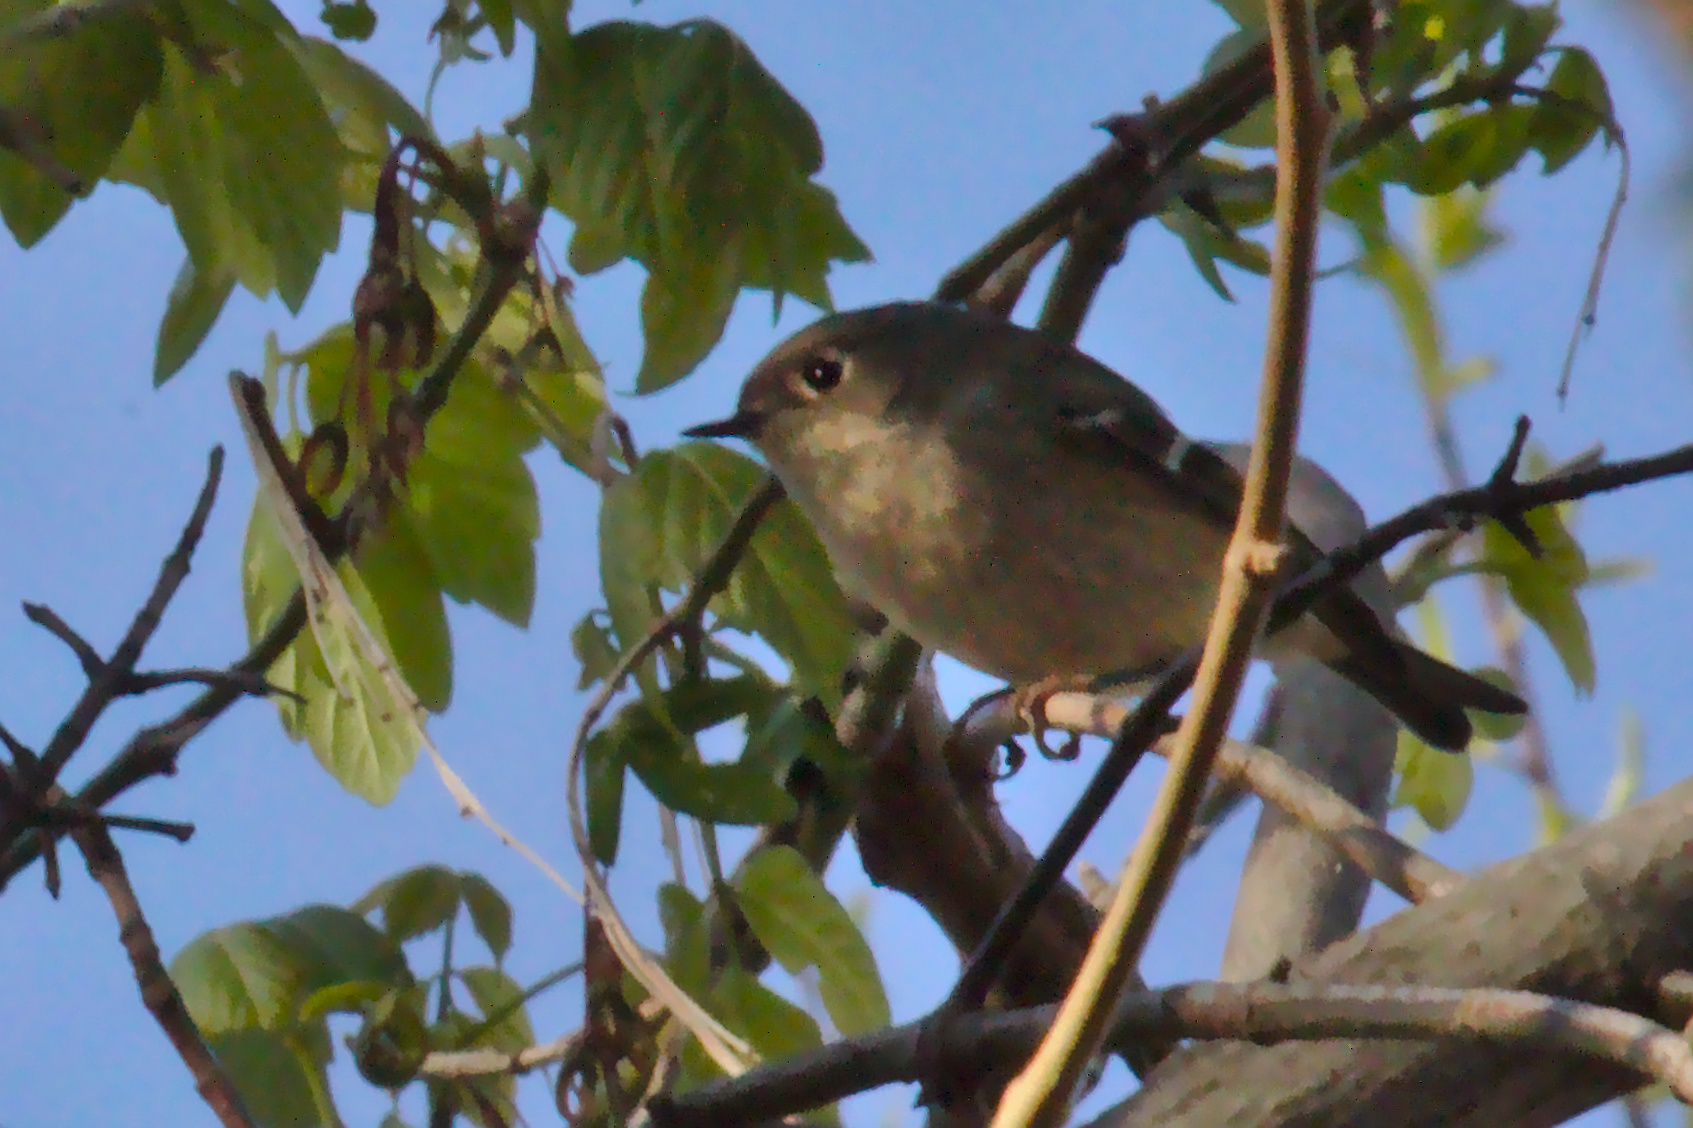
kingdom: Animalia
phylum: Chordata
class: Aves
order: Passeriformes
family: Regulidae
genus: Regulus
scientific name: Regulus calendula
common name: Ruby-crowned kinglet
